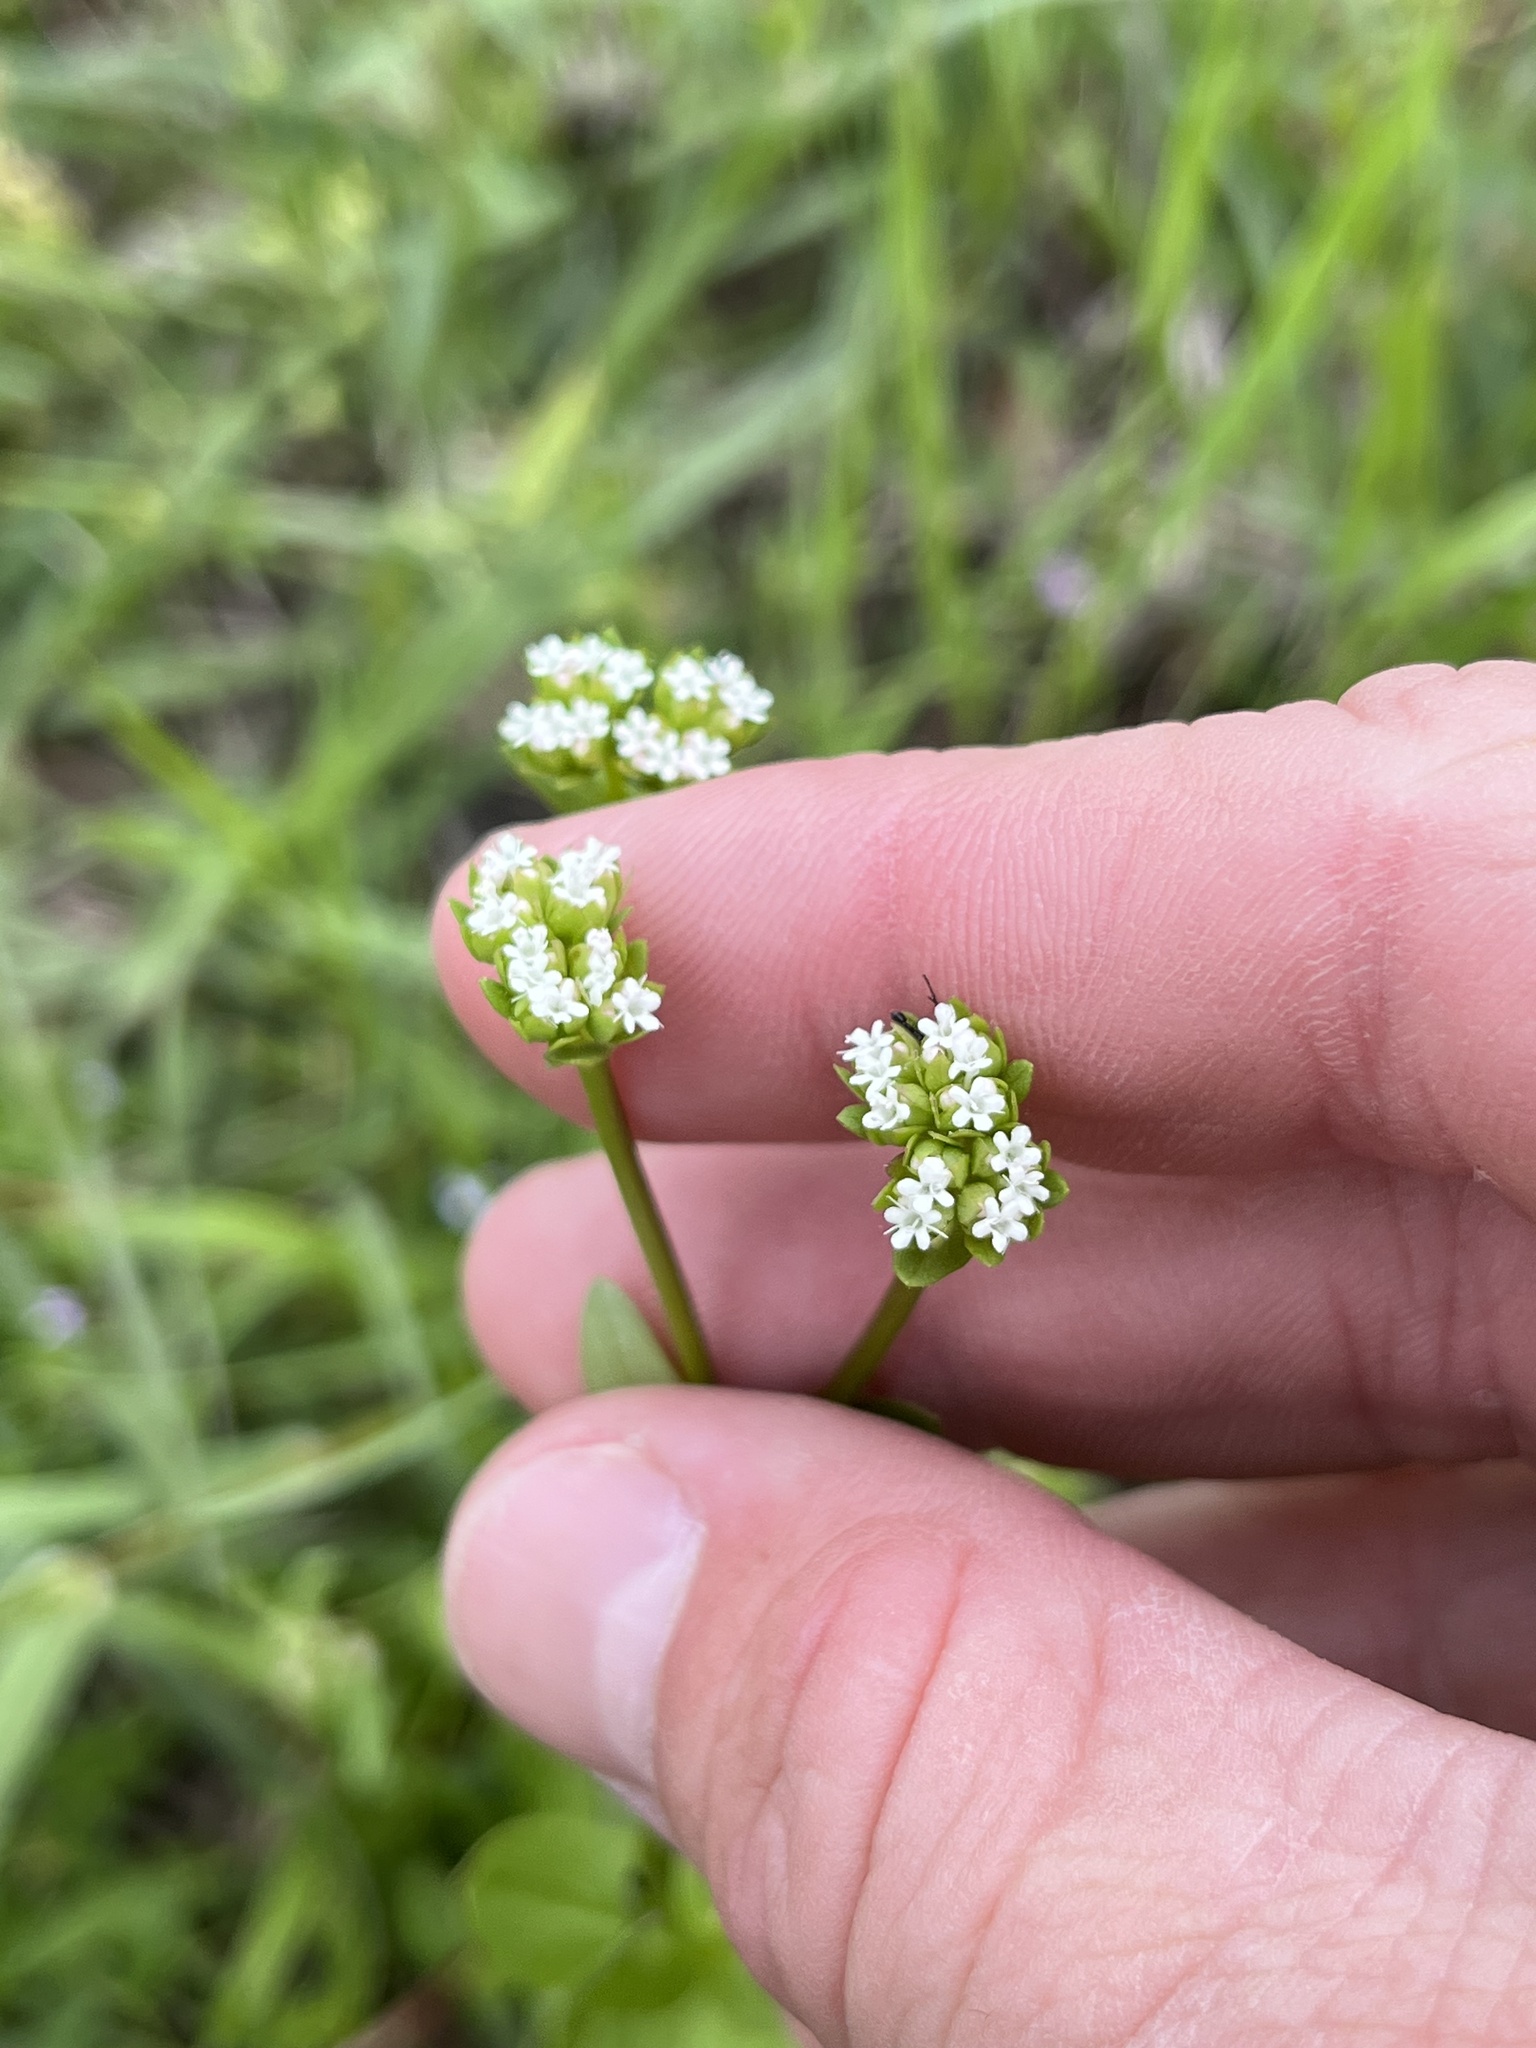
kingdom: Plantae
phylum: Tracheophyta
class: Magnoliopsida
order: Dipsacales
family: Caprifoliaceae
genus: Valerianella
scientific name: Valerianella radiata
